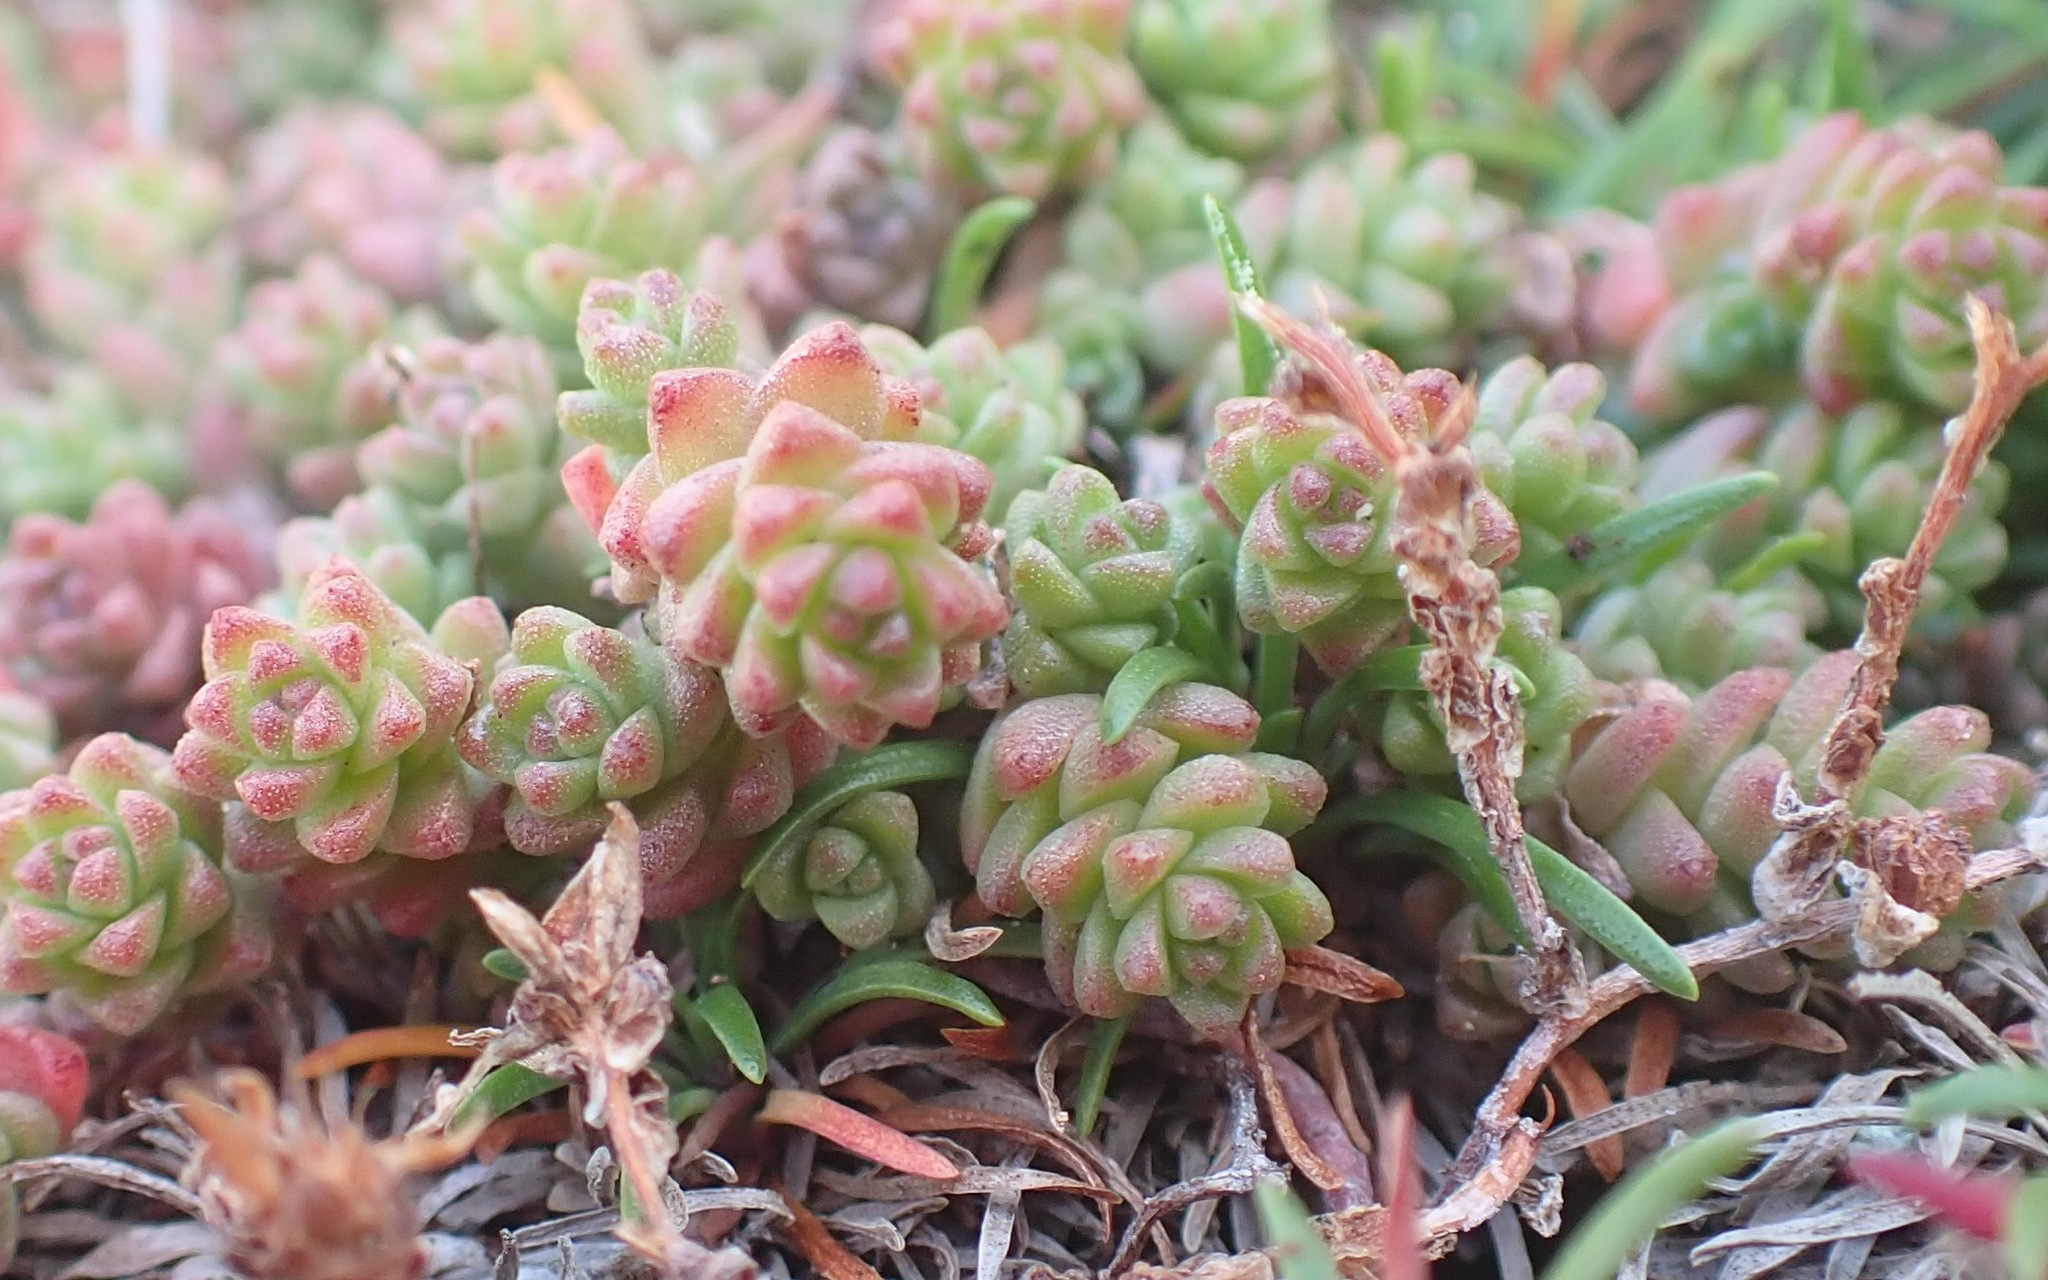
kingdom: Plantae
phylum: Tracheophyta
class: Magnoliopsida
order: Saxifragales
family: Crassulaceae
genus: Sedum
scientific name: Sedum anglicum
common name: English stonecrop
